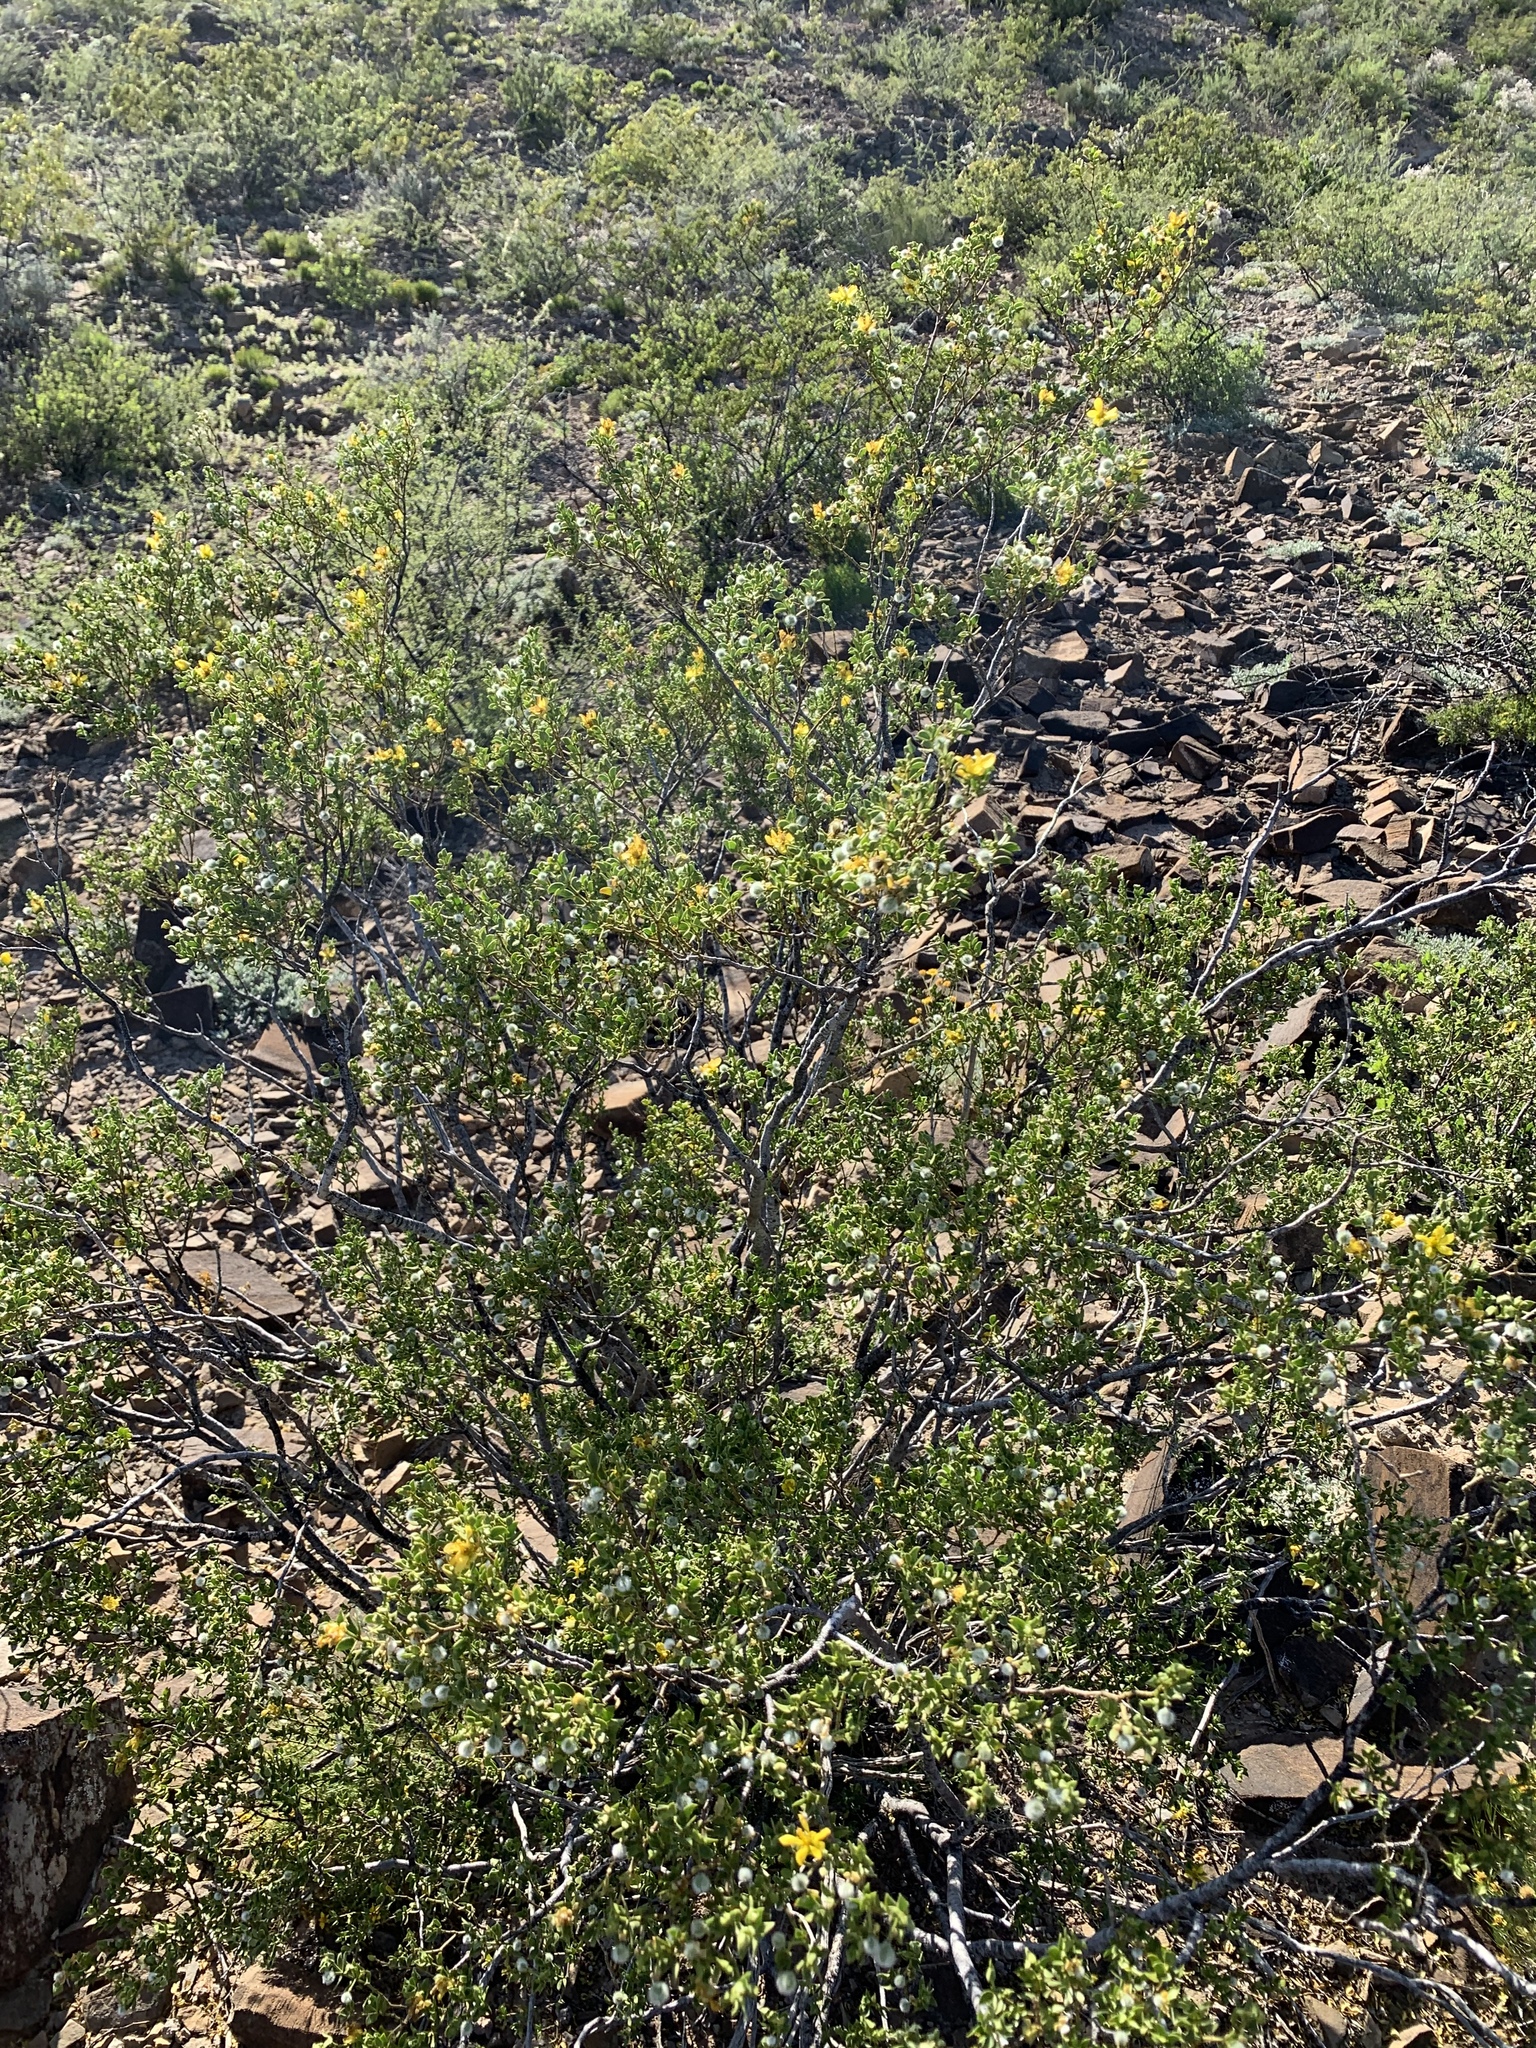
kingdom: Plantae
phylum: Tracheophyta
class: Magnoliopsida
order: Zygophyllales
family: Zygophyllaceae
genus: Larrea
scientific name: Larrea tridentata
